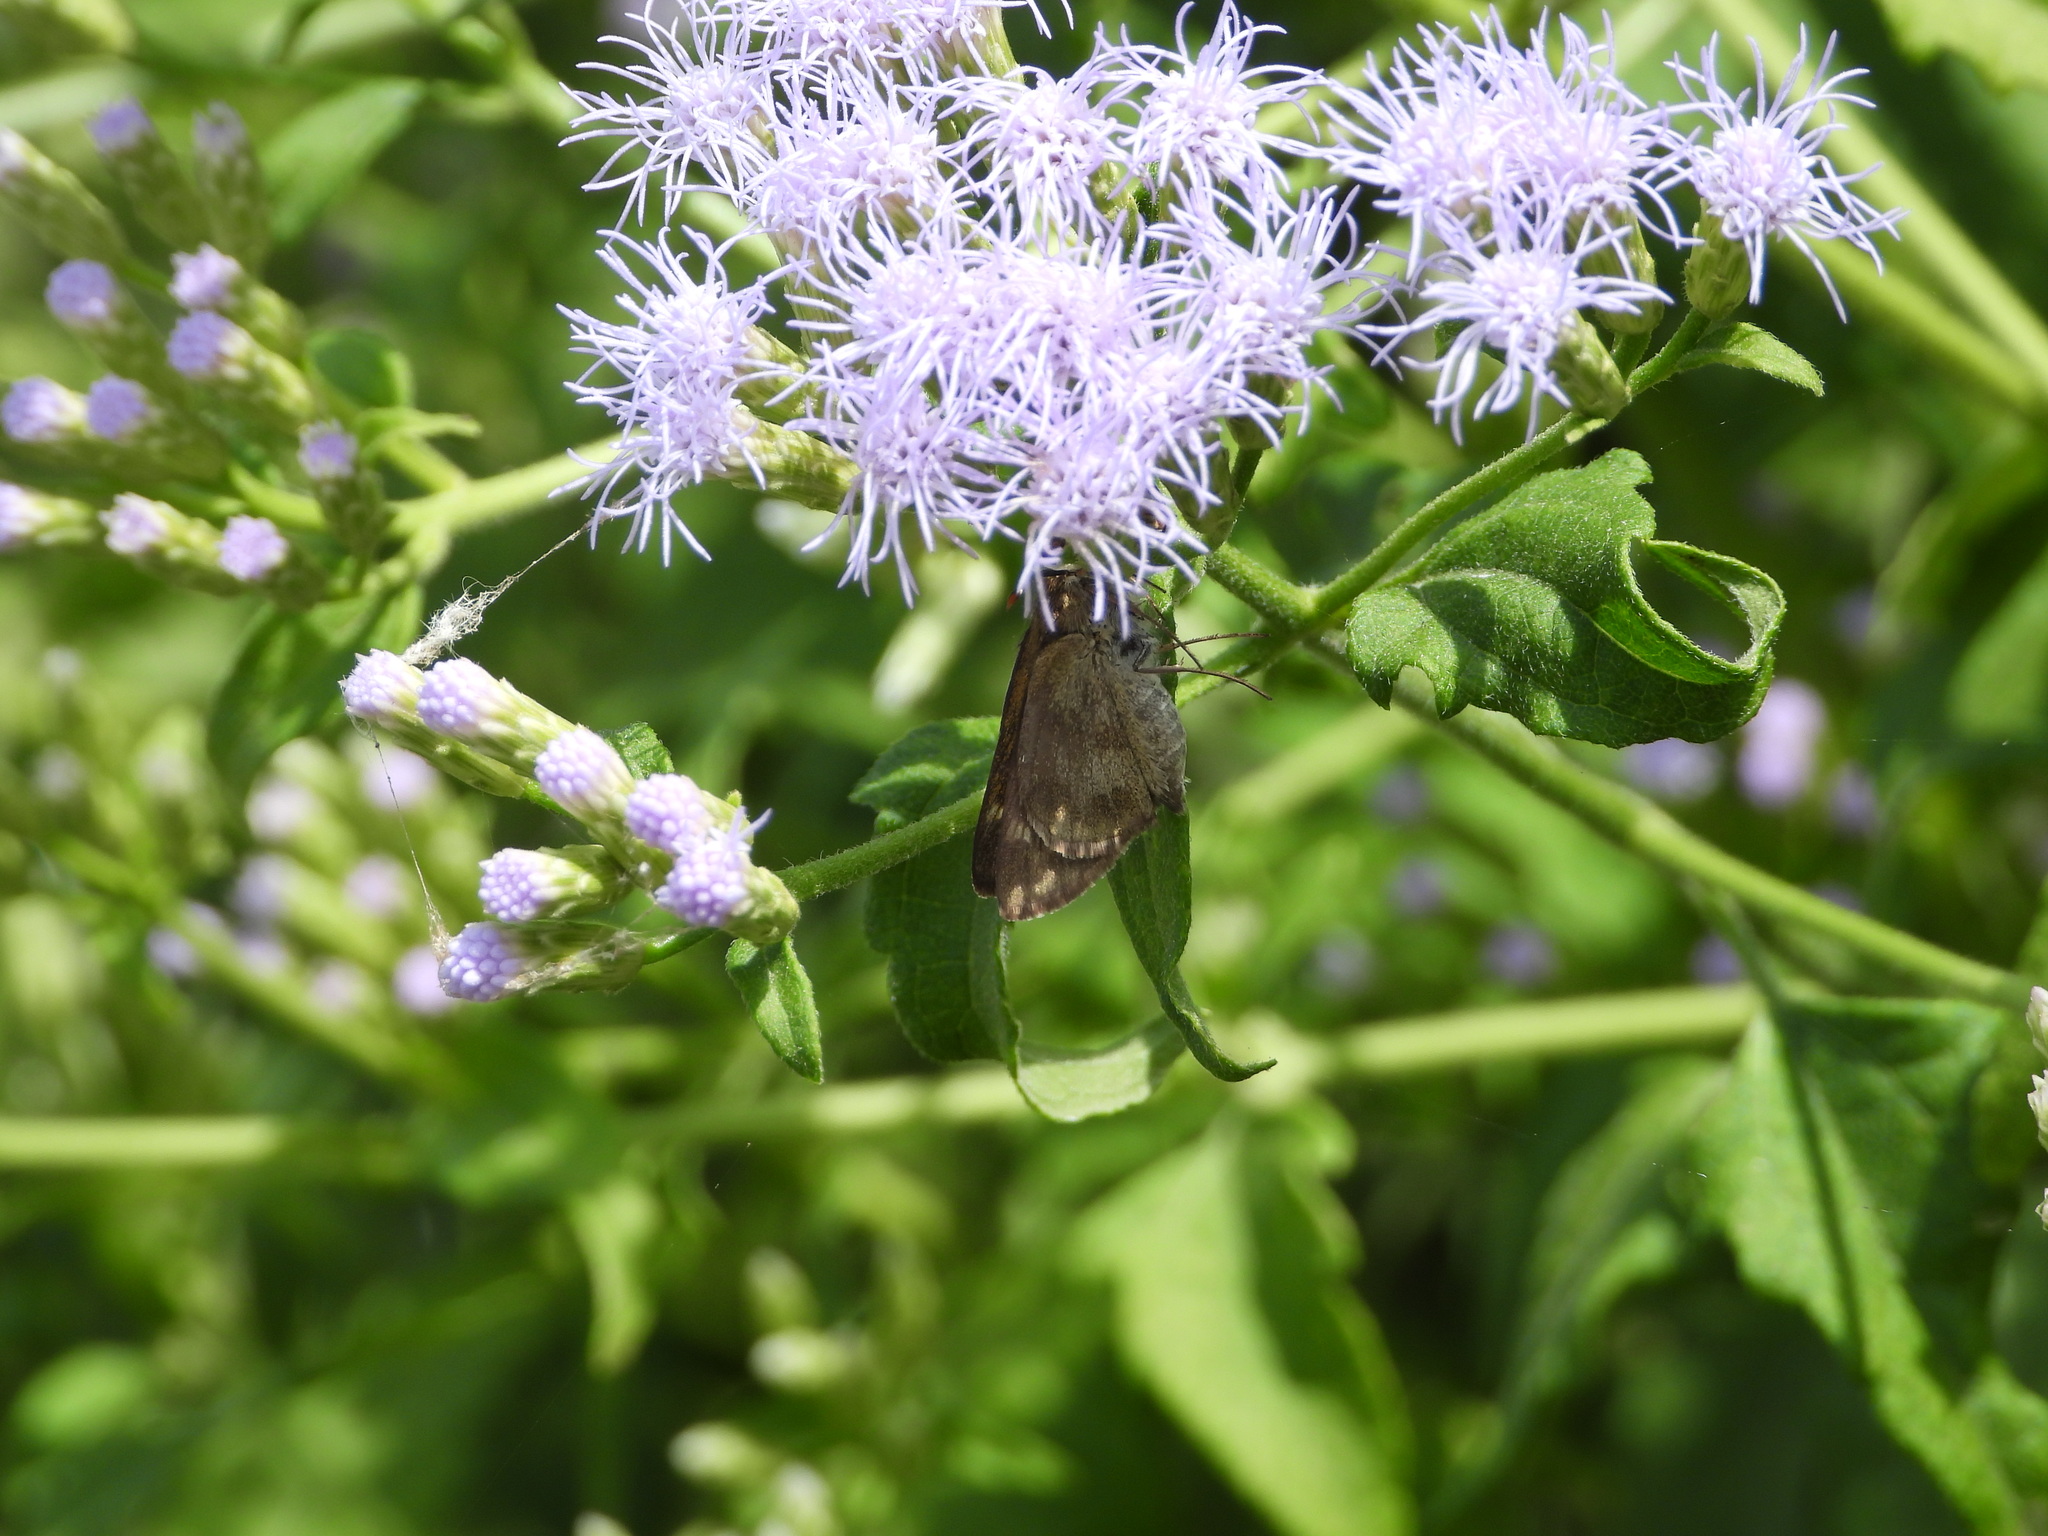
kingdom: Animalia
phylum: Arthropoda
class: Insecta
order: Lepidoptera
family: Hesperiidae
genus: Polites
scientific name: Polites vibex
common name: Whirlabout
